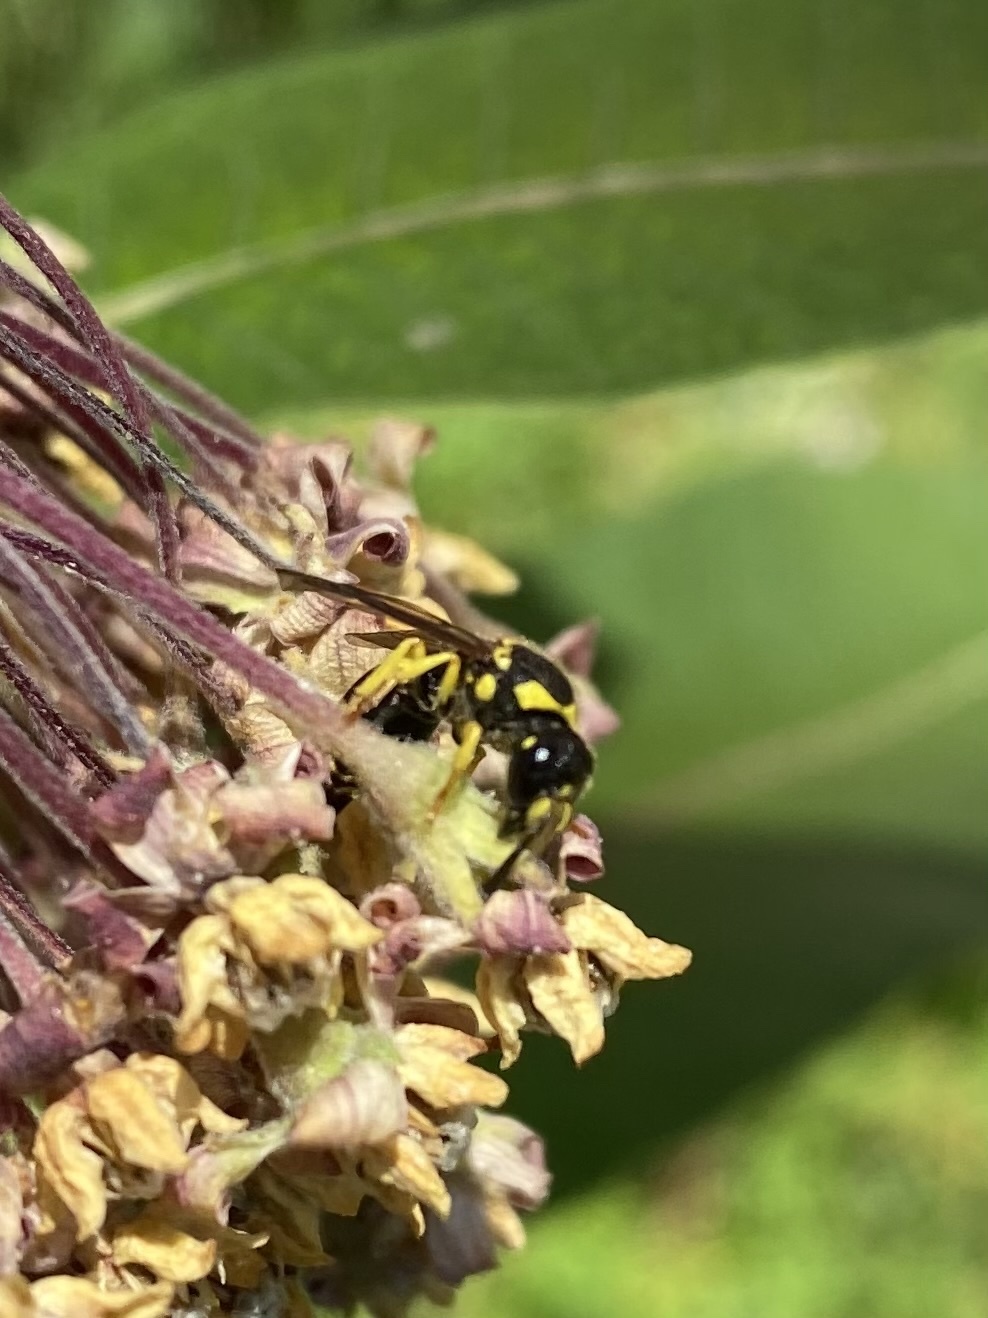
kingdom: Animalia
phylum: Arthropoda
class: Insecta
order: Hymenoptera
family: Vespidae
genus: Ancistrocerus
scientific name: Ancistrocerus gazella
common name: European tube wasp
